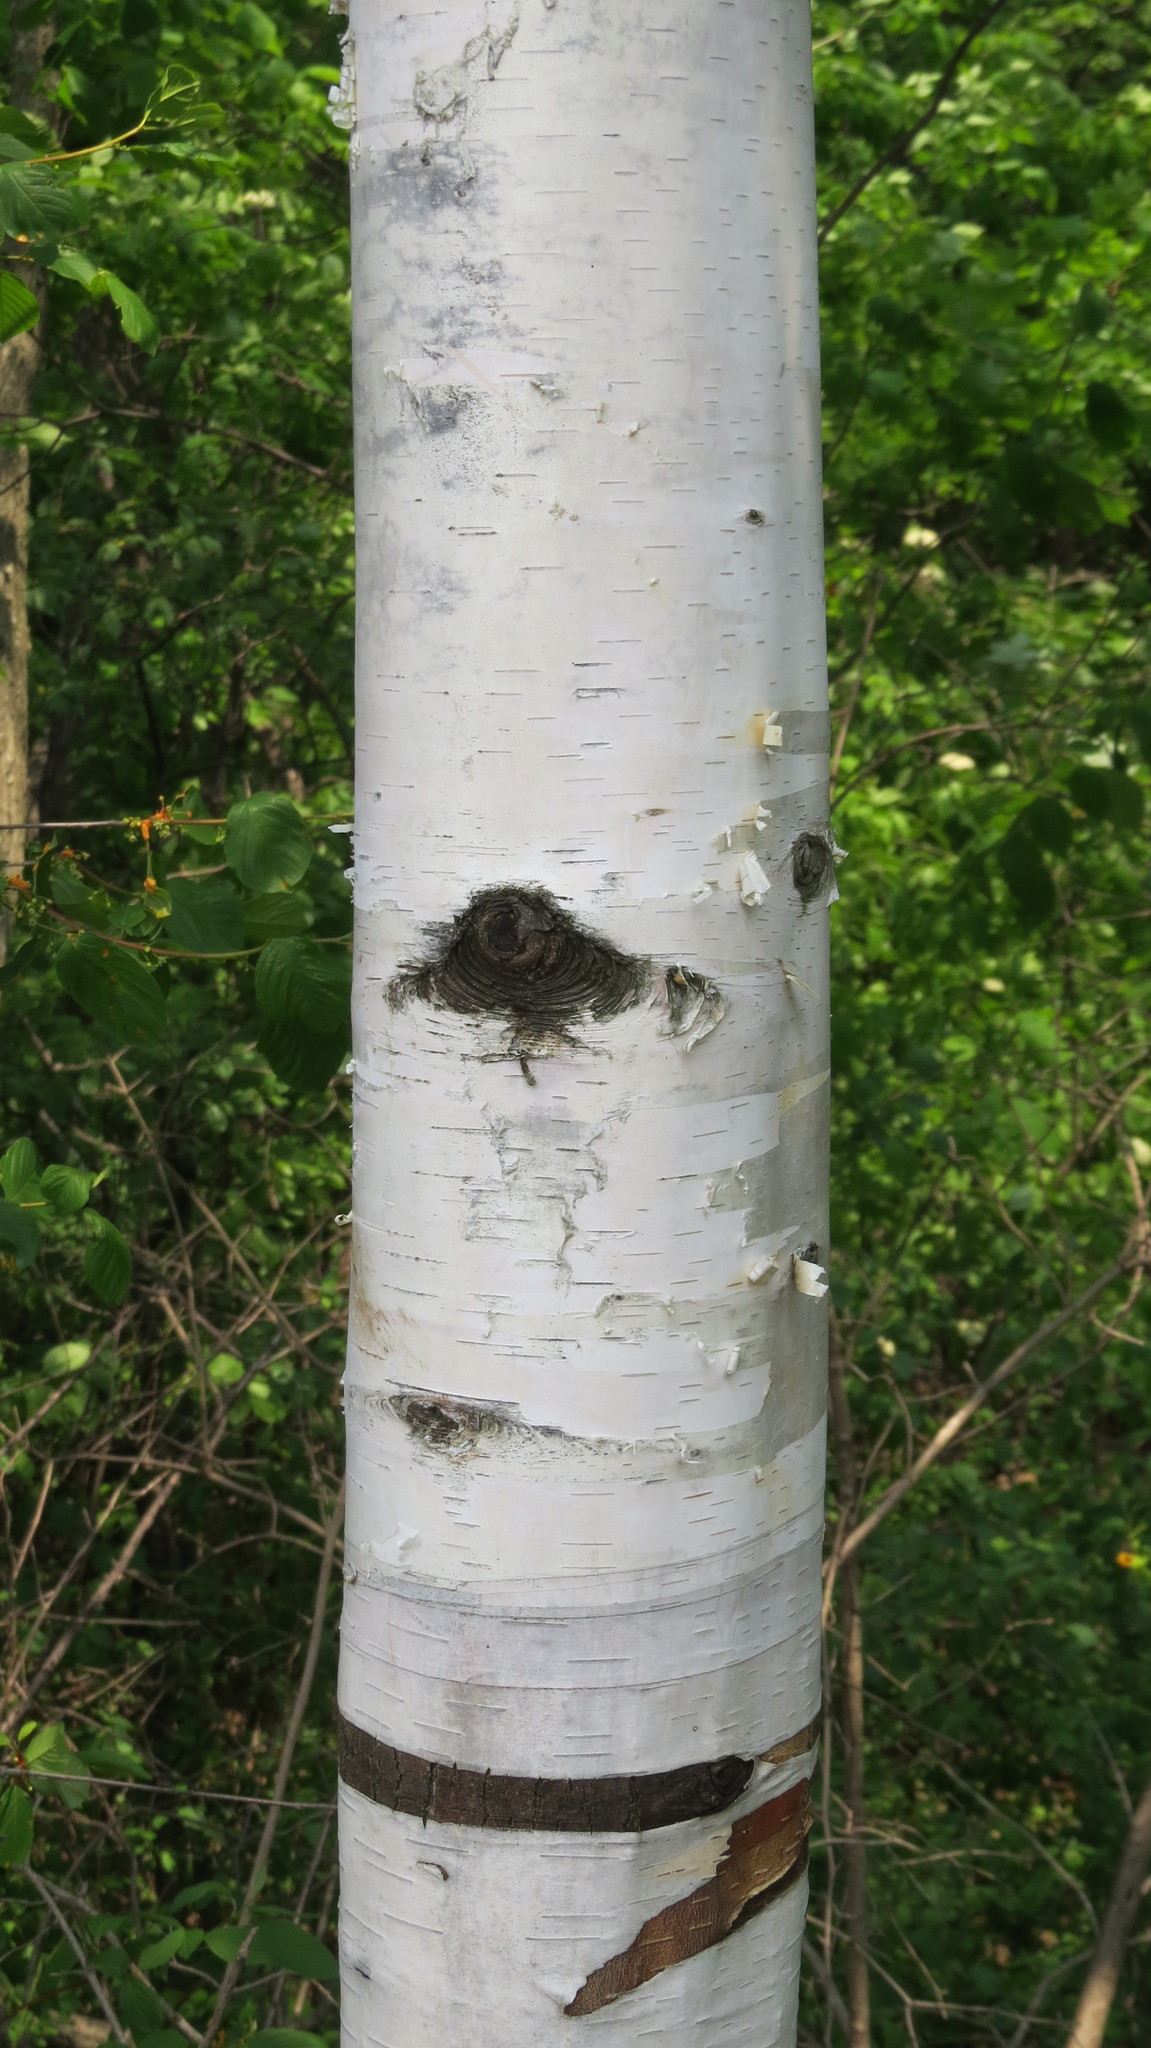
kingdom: Plantae
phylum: Tracheophyta
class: Magnoliopsida
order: Fagales
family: Betulaceae
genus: Betula
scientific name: Betula papyrifera
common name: Paper birch
